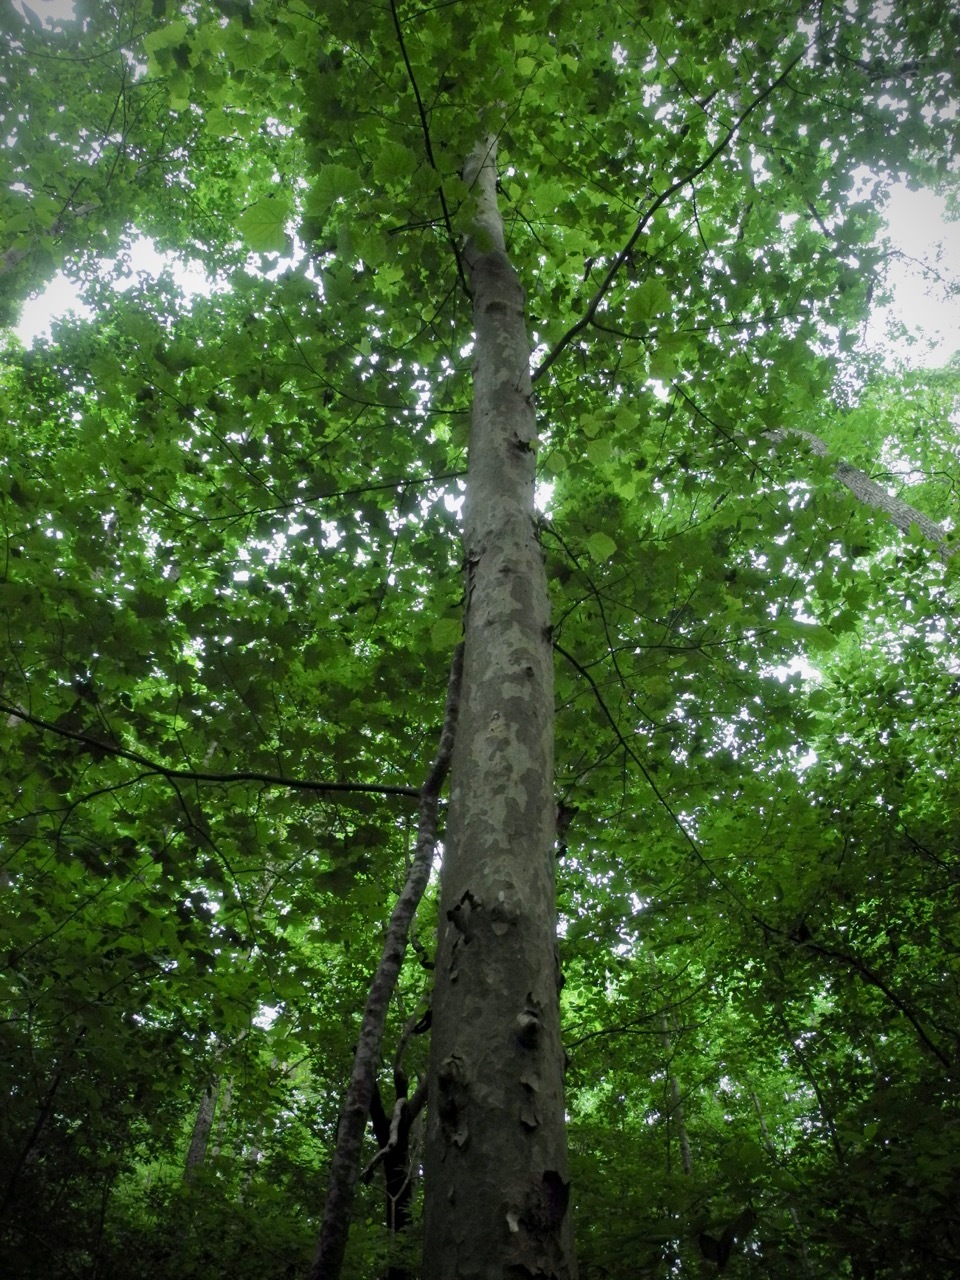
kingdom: Plantae
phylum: Tracheophyta
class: Magnoliopsida
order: Proteales
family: Platanaceae
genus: Platanus
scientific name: Platanus occidentalis
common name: American sycamore
